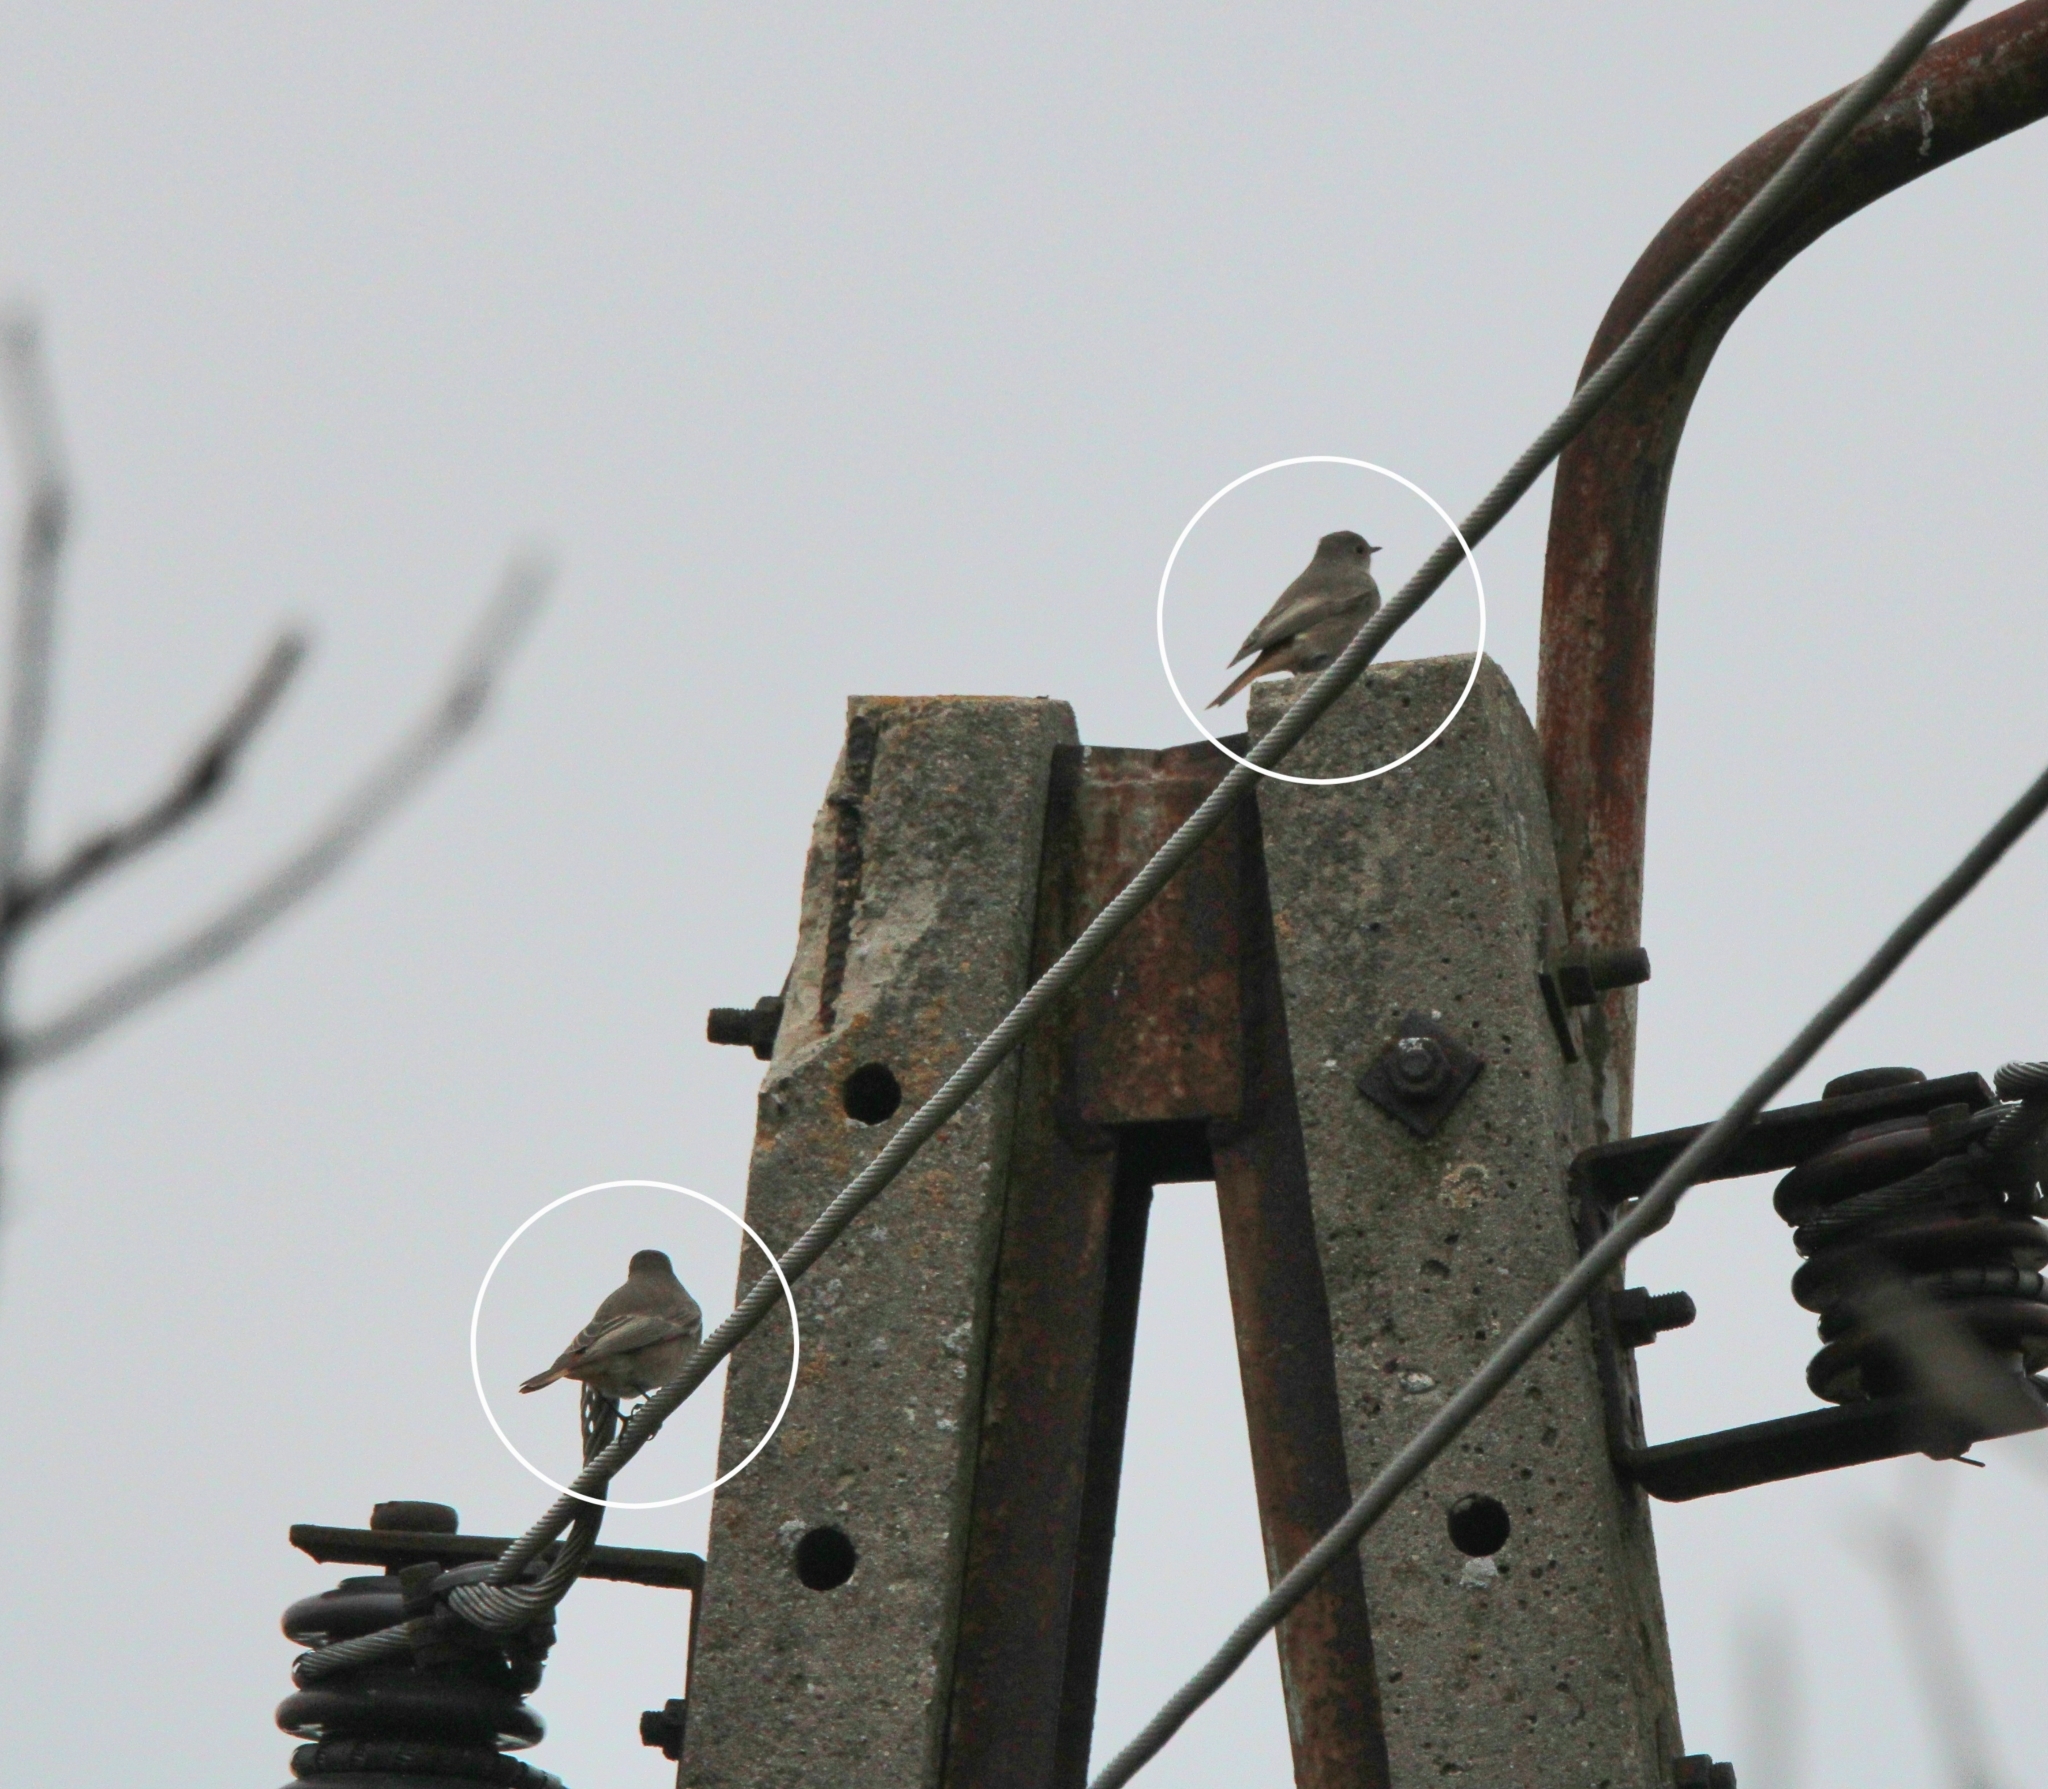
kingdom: Animalia
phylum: Chordata
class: Aves
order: Passeriformes
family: Muscicapidae
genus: Phoenicurus
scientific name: Phoenicurus ochruros
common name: Black redstart
